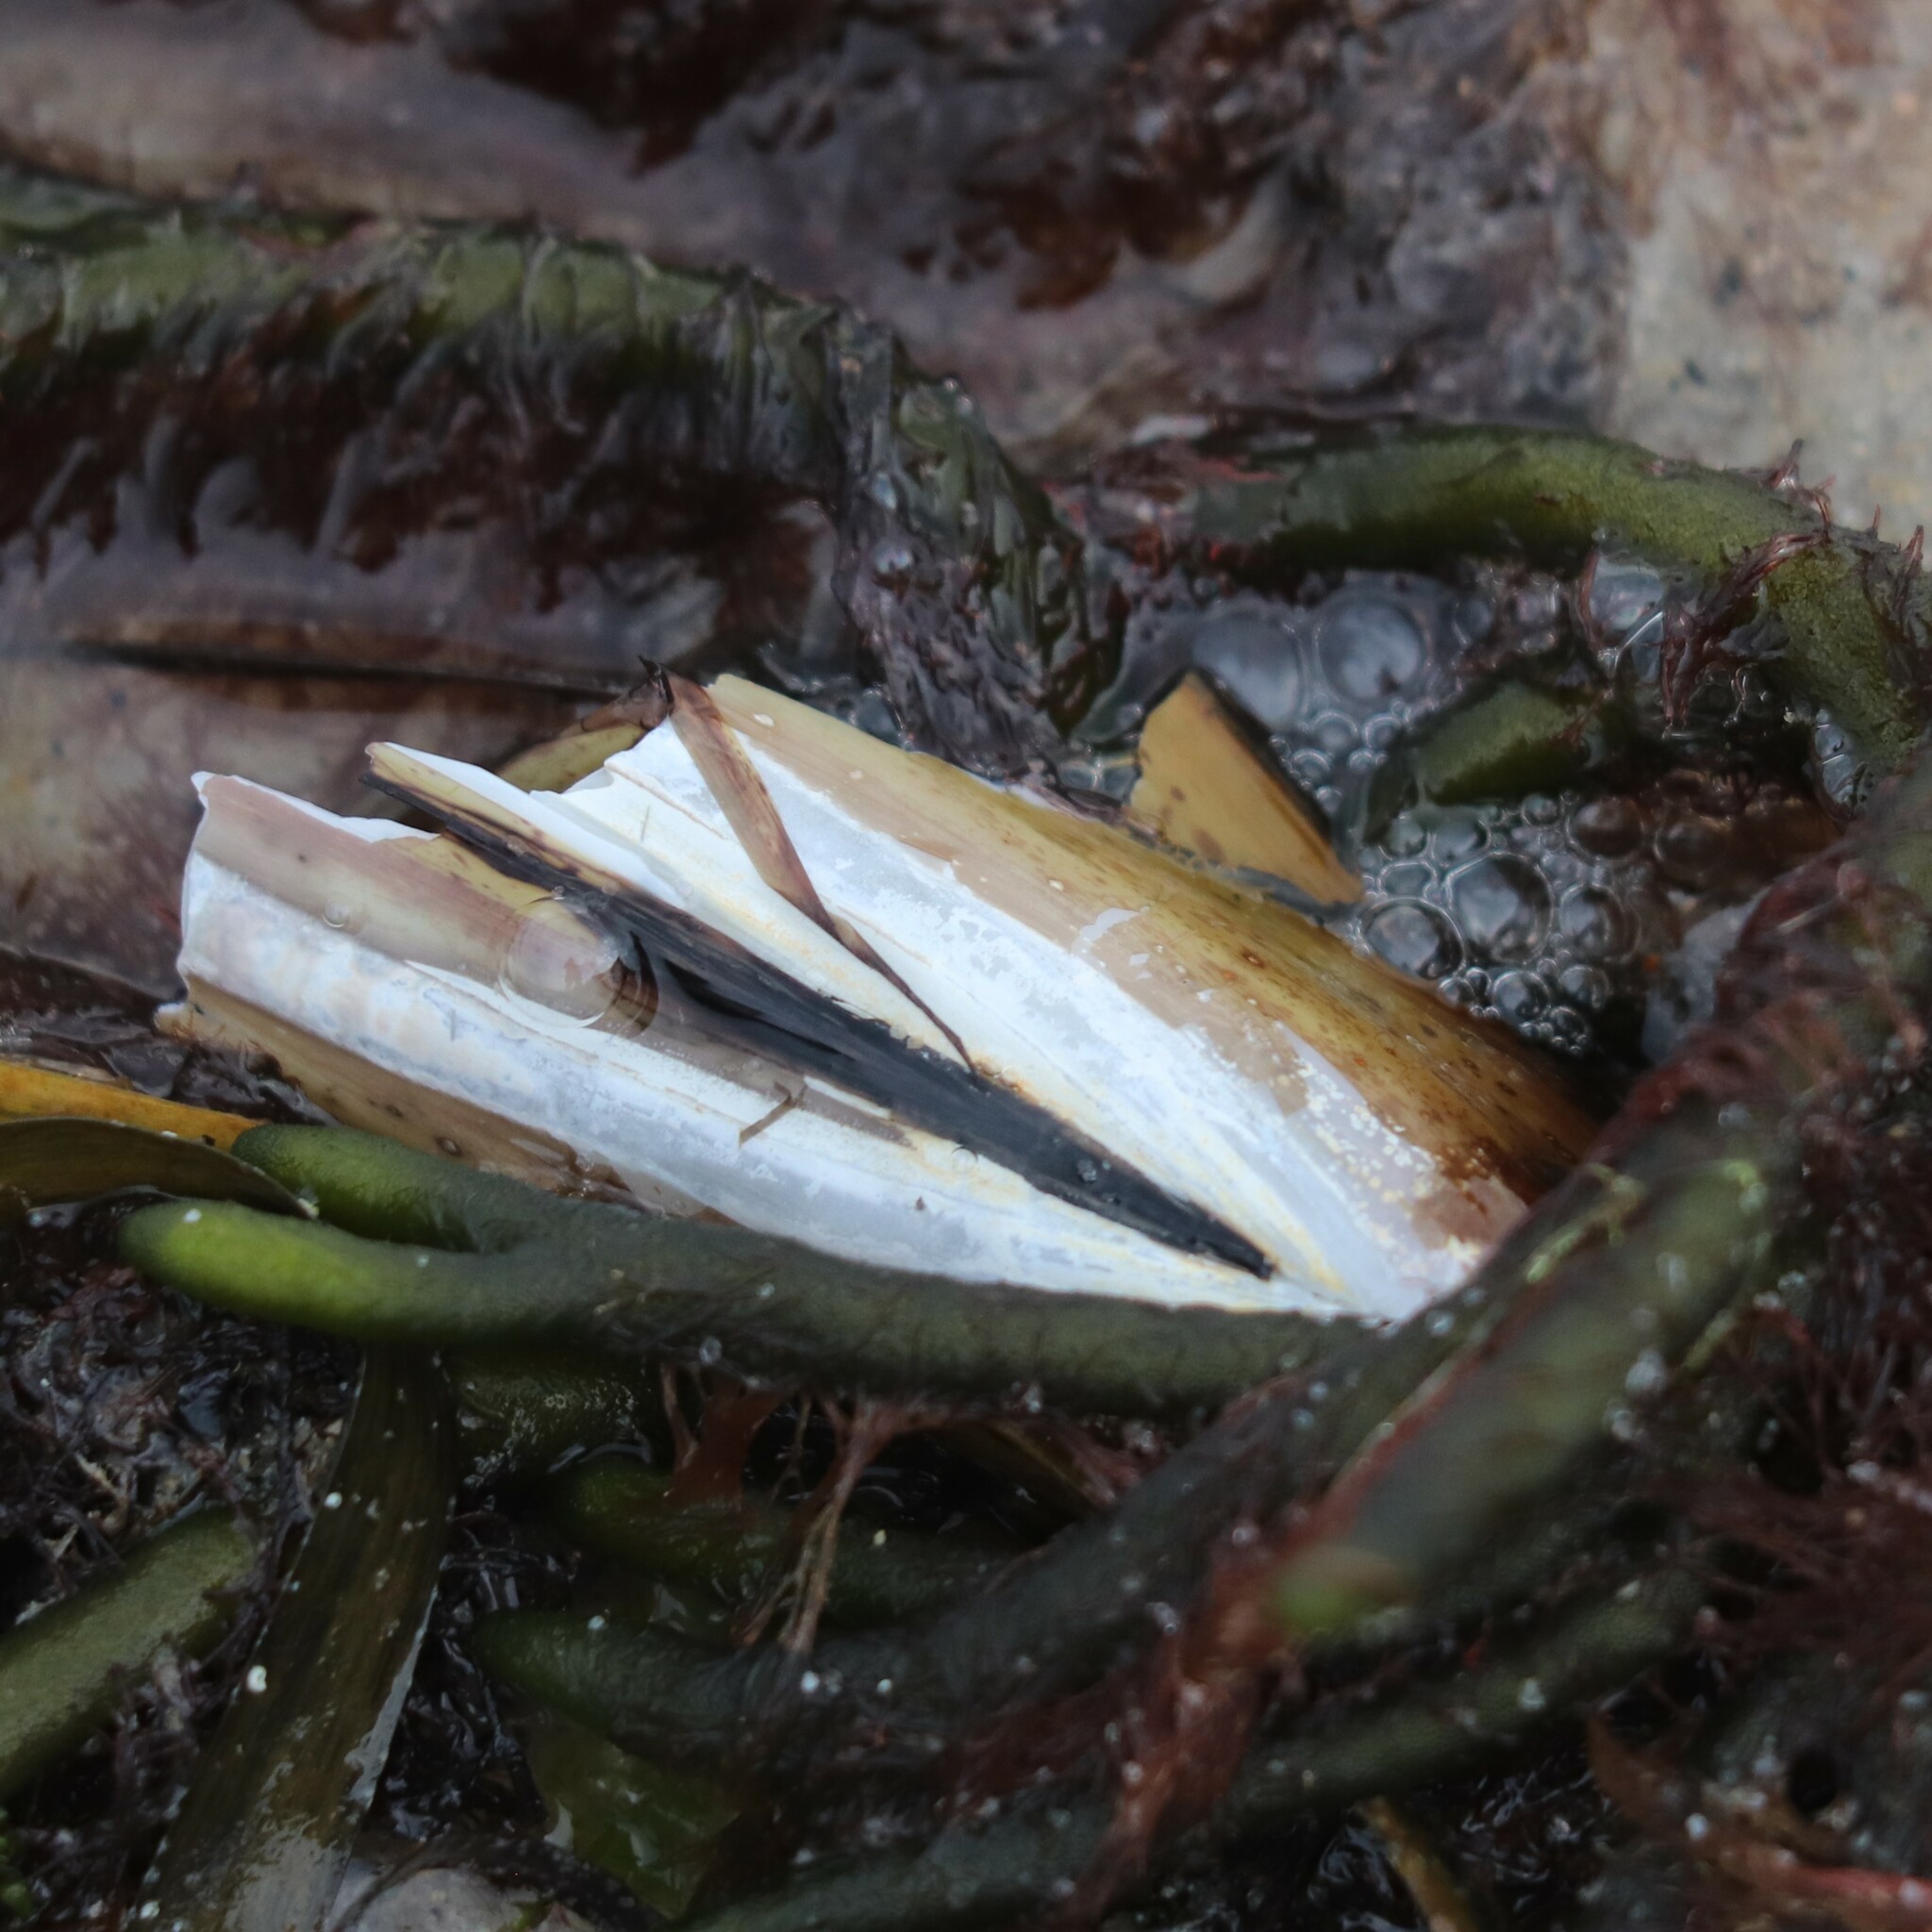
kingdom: Animalia
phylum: Mollusca
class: Bivalvia
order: Adapedonta
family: Pharidae
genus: Ensis
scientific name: Ensis leei
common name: American jack knife clam
